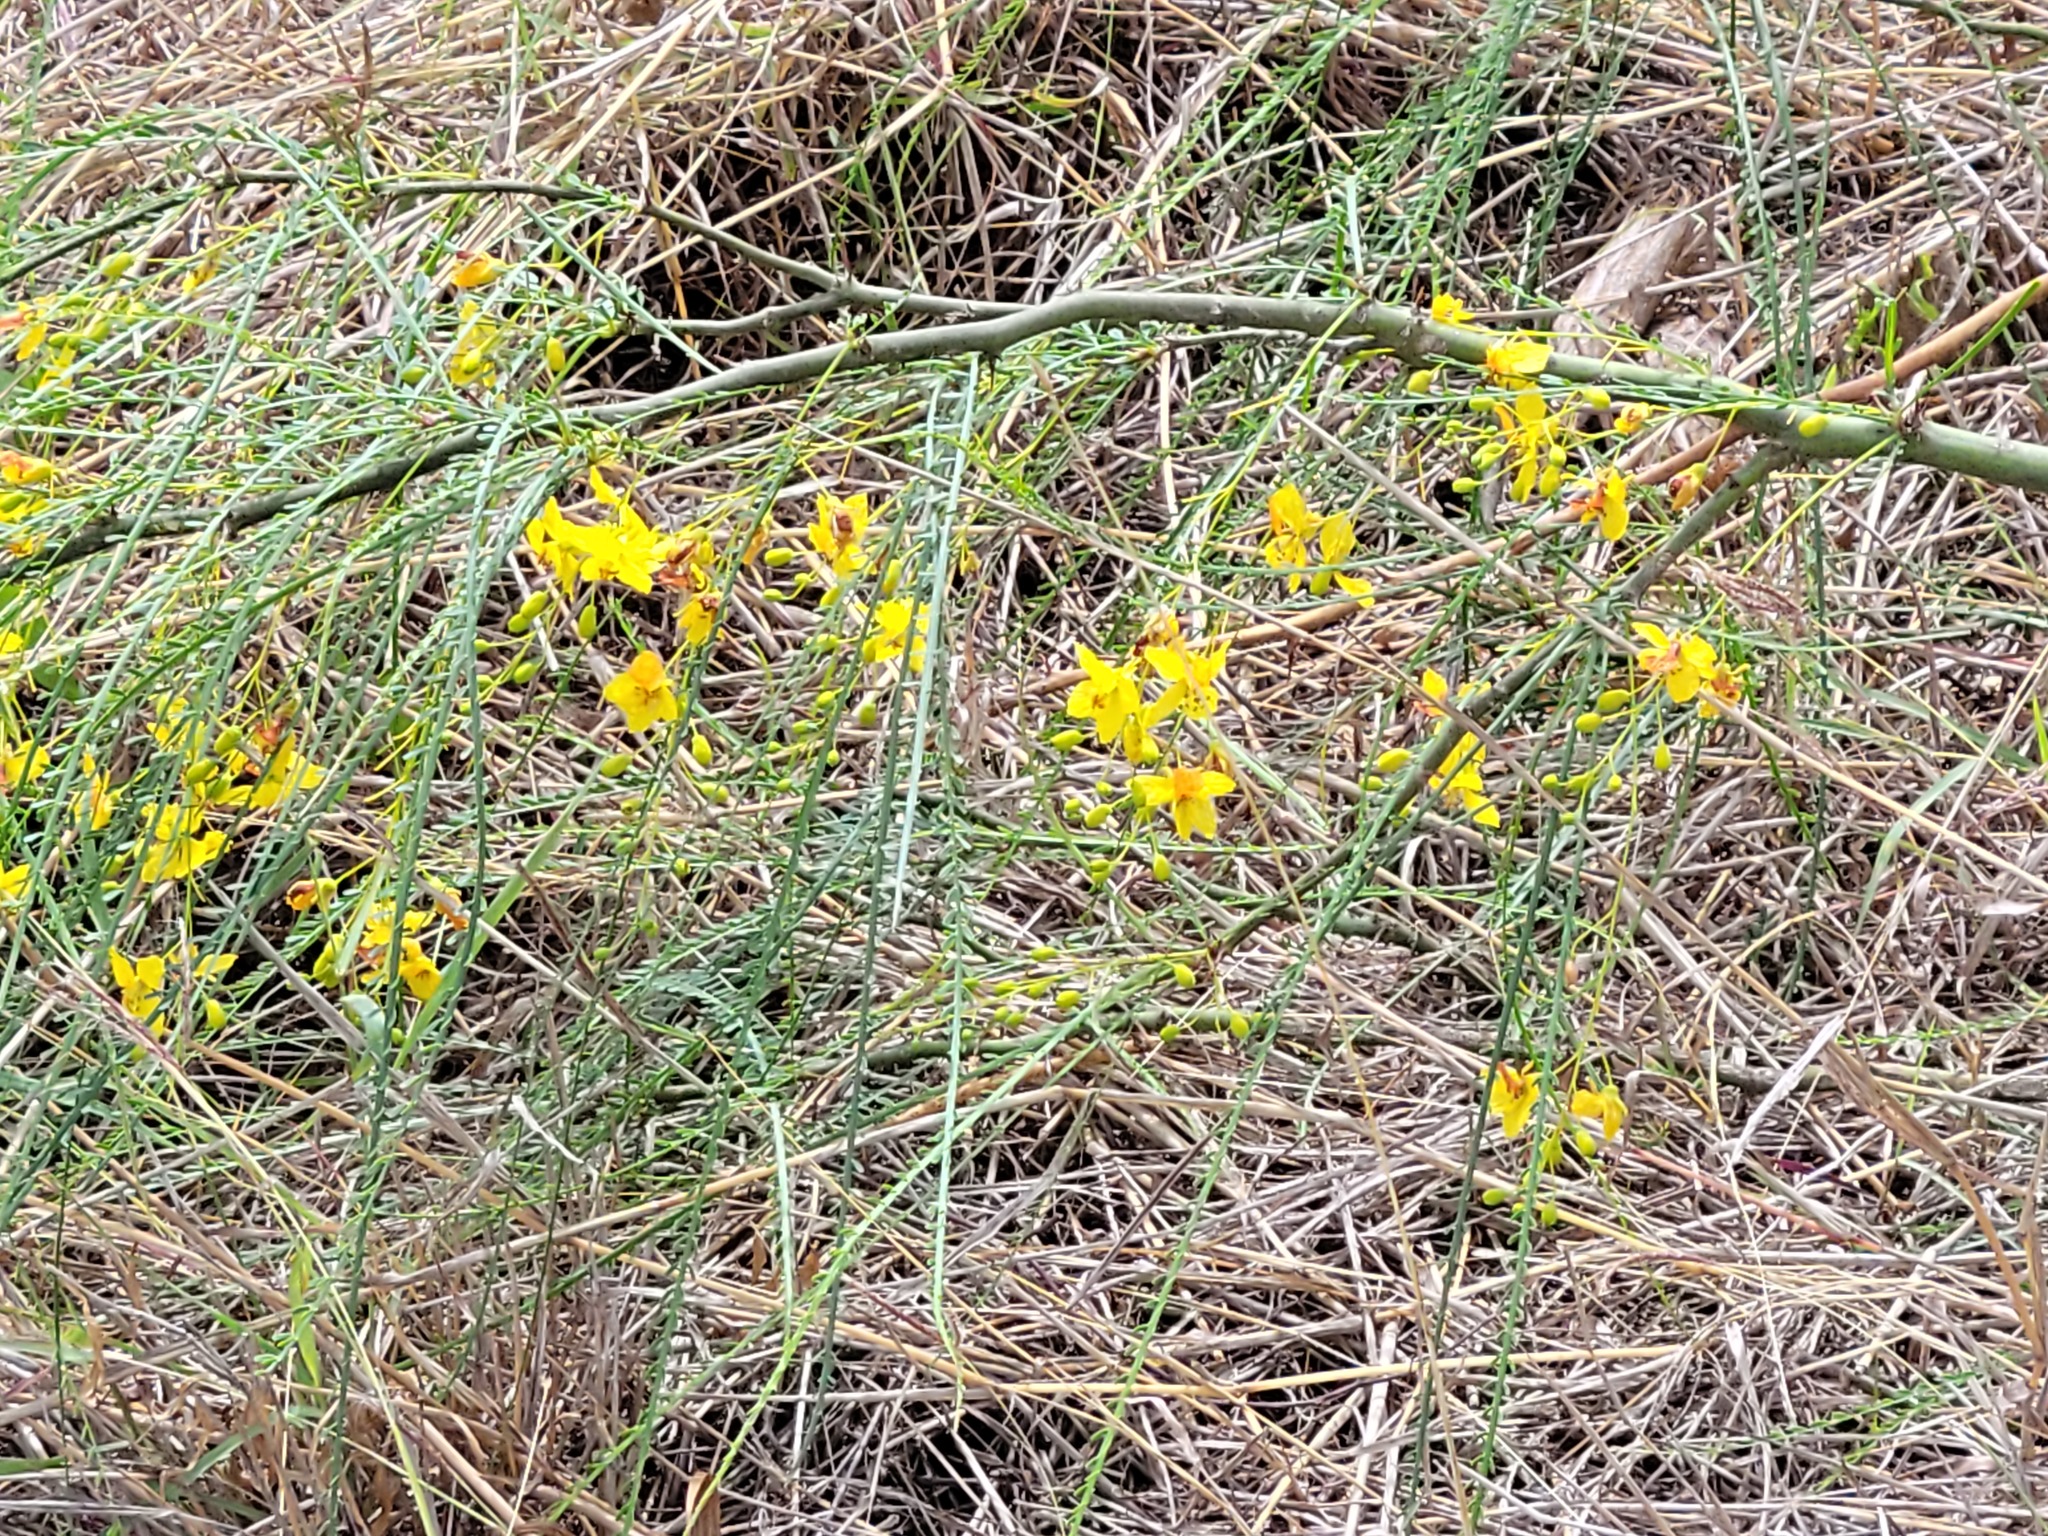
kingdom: Plantae
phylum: Tracheophyta
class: Magnoliopsida
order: Fabales
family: Fabaceae
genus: Parkinsonia
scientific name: Parkinsonia aculeata
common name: Jerusalem thorn
